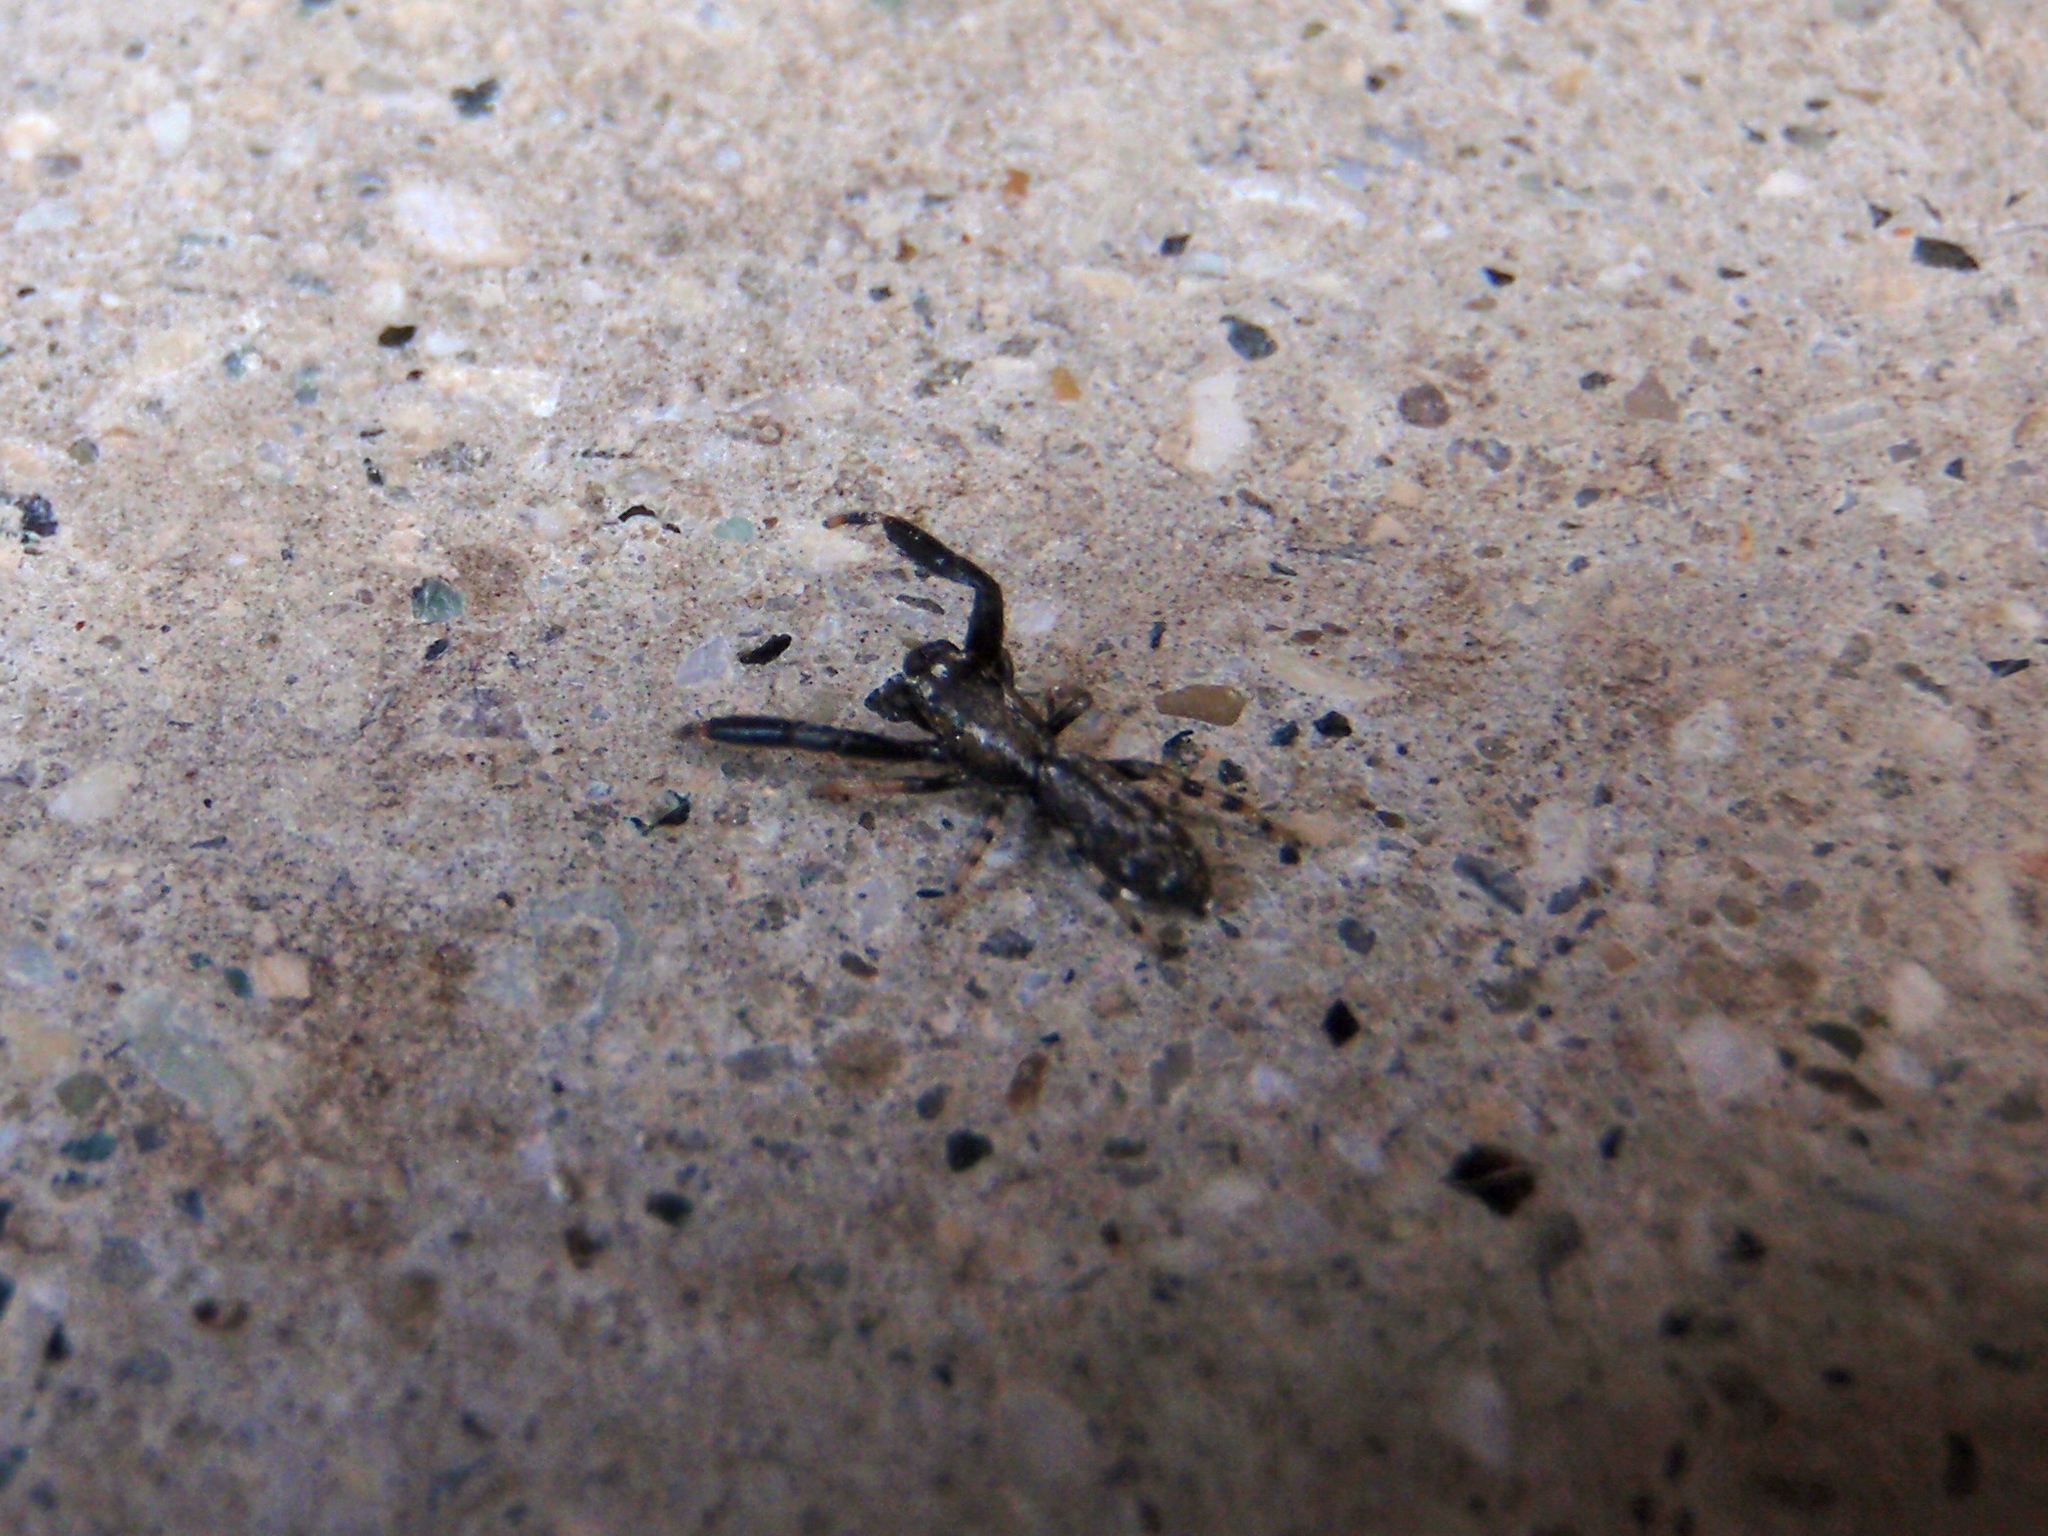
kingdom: Animalia
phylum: Arthropoda
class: Arachnida
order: Araneae
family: Salticidae
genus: Marpissa
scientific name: Marpissa nivoyi
